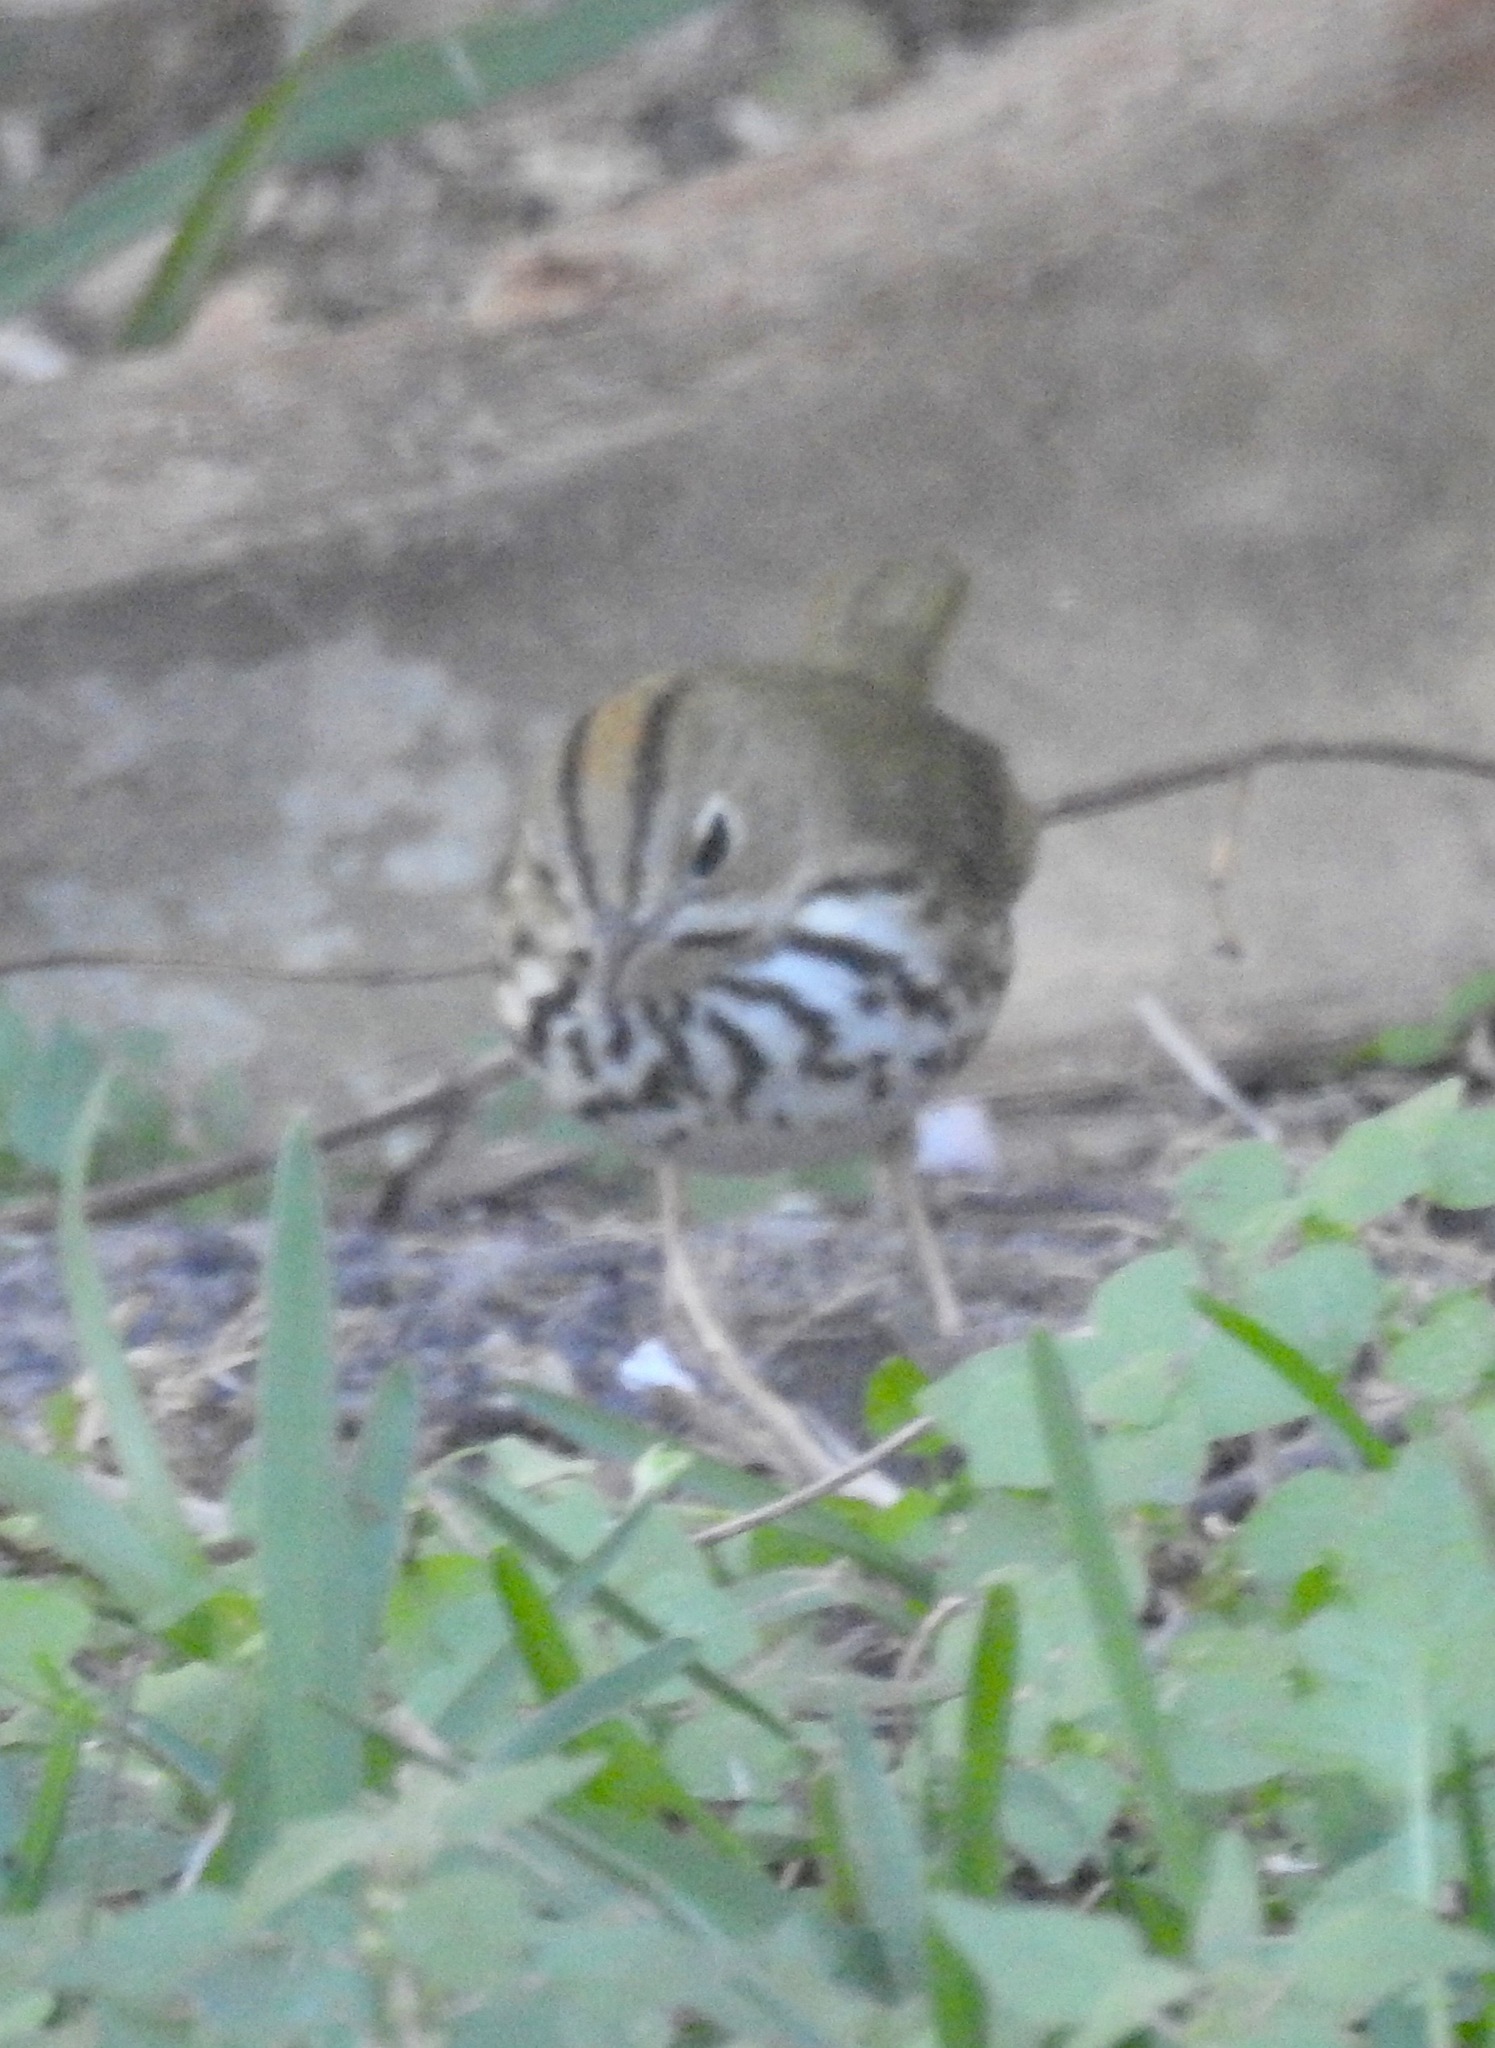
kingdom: Animalia
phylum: Chordata
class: Aves
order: Passeriformes
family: Parulidae
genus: Seiurus
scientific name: Seiurus aurocapilla
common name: Ovenbird
